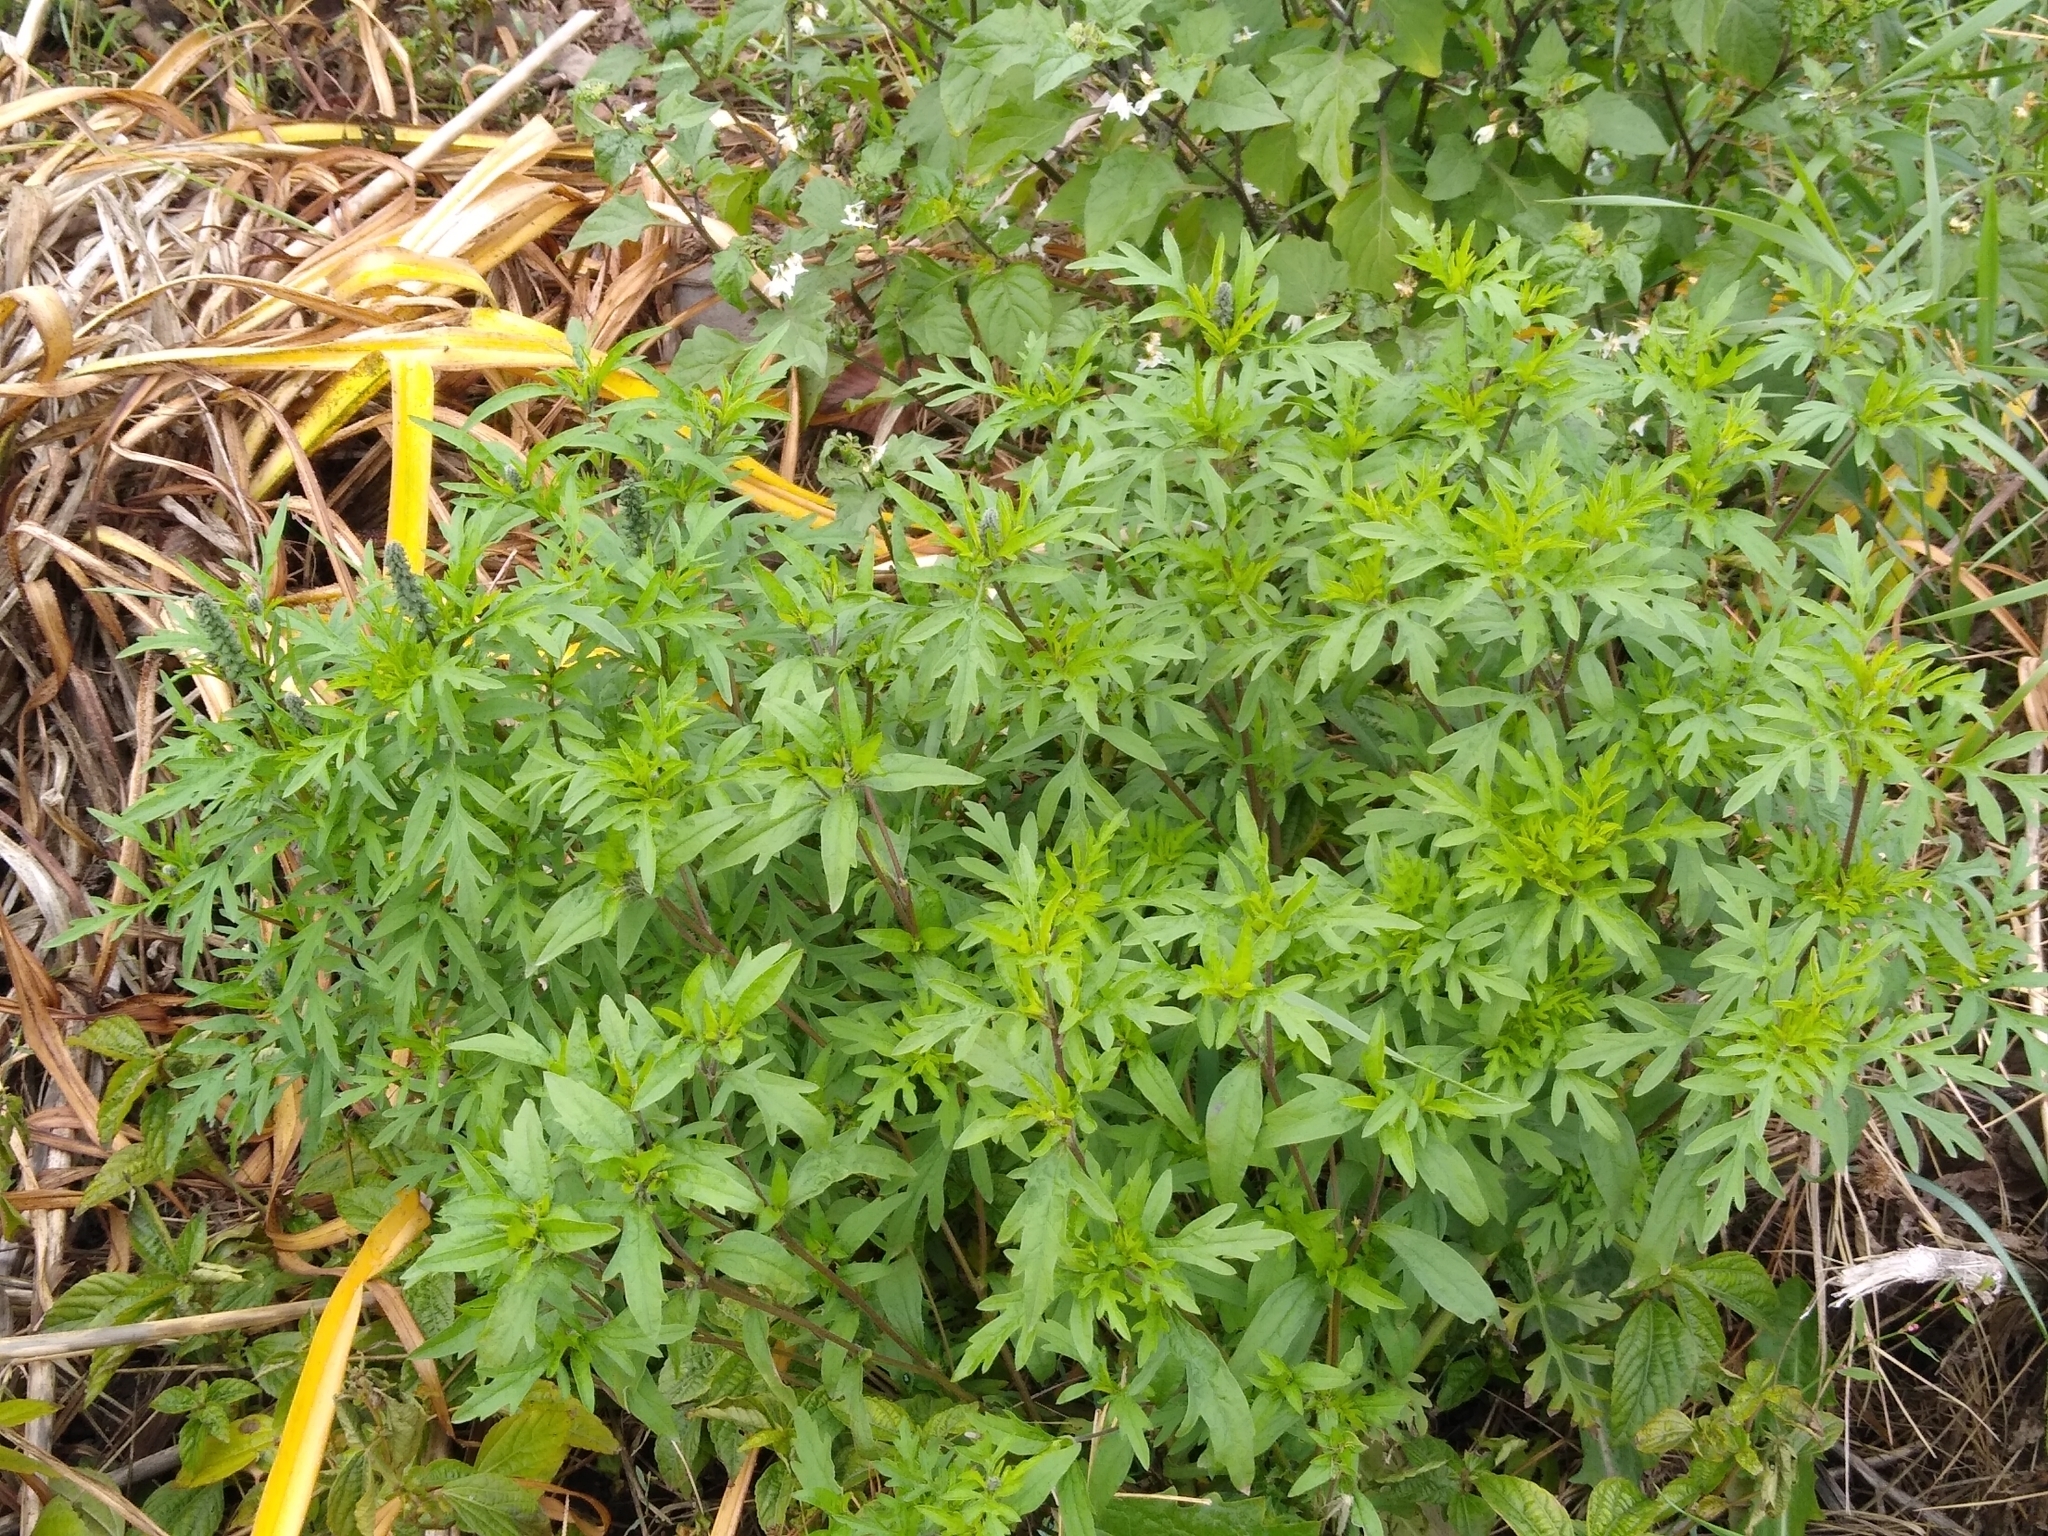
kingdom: Plantae
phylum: Tracheophyta
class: Magnoliopsida
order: Asterales
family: Asteraceae
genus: Ambrosia
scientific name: Ambrosia artemisiifolia
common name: Annual ragweed
